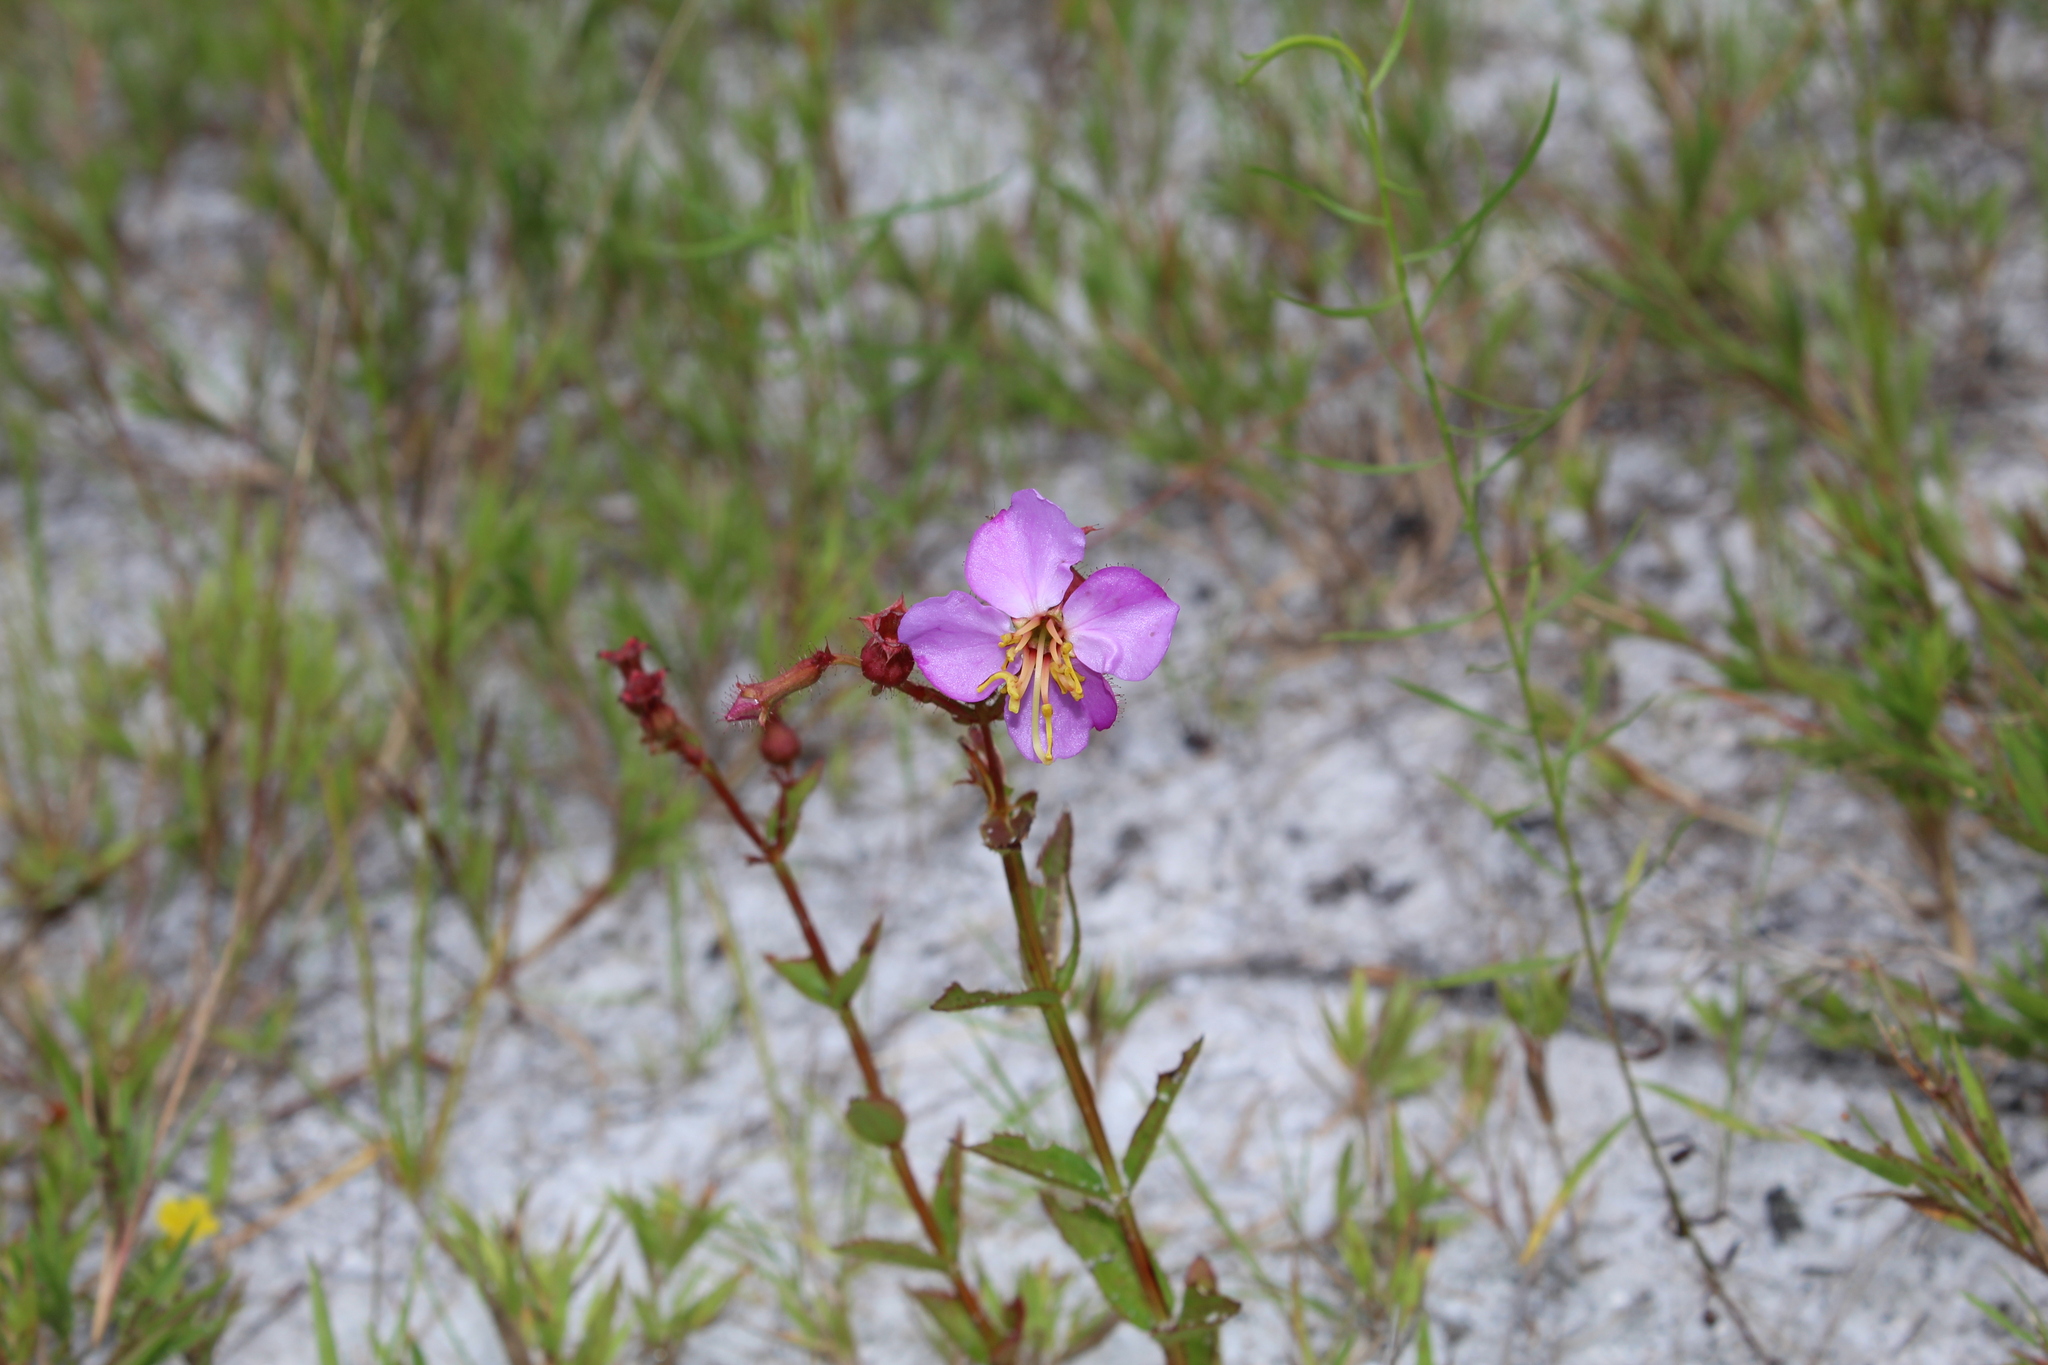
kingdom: Plantae
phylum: Tracheophyta
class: Magnoliopsida
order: Myrtales
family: Melastomataceae
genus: Rhexia
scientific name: Rhexia virginica
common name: Common meadow beauty
